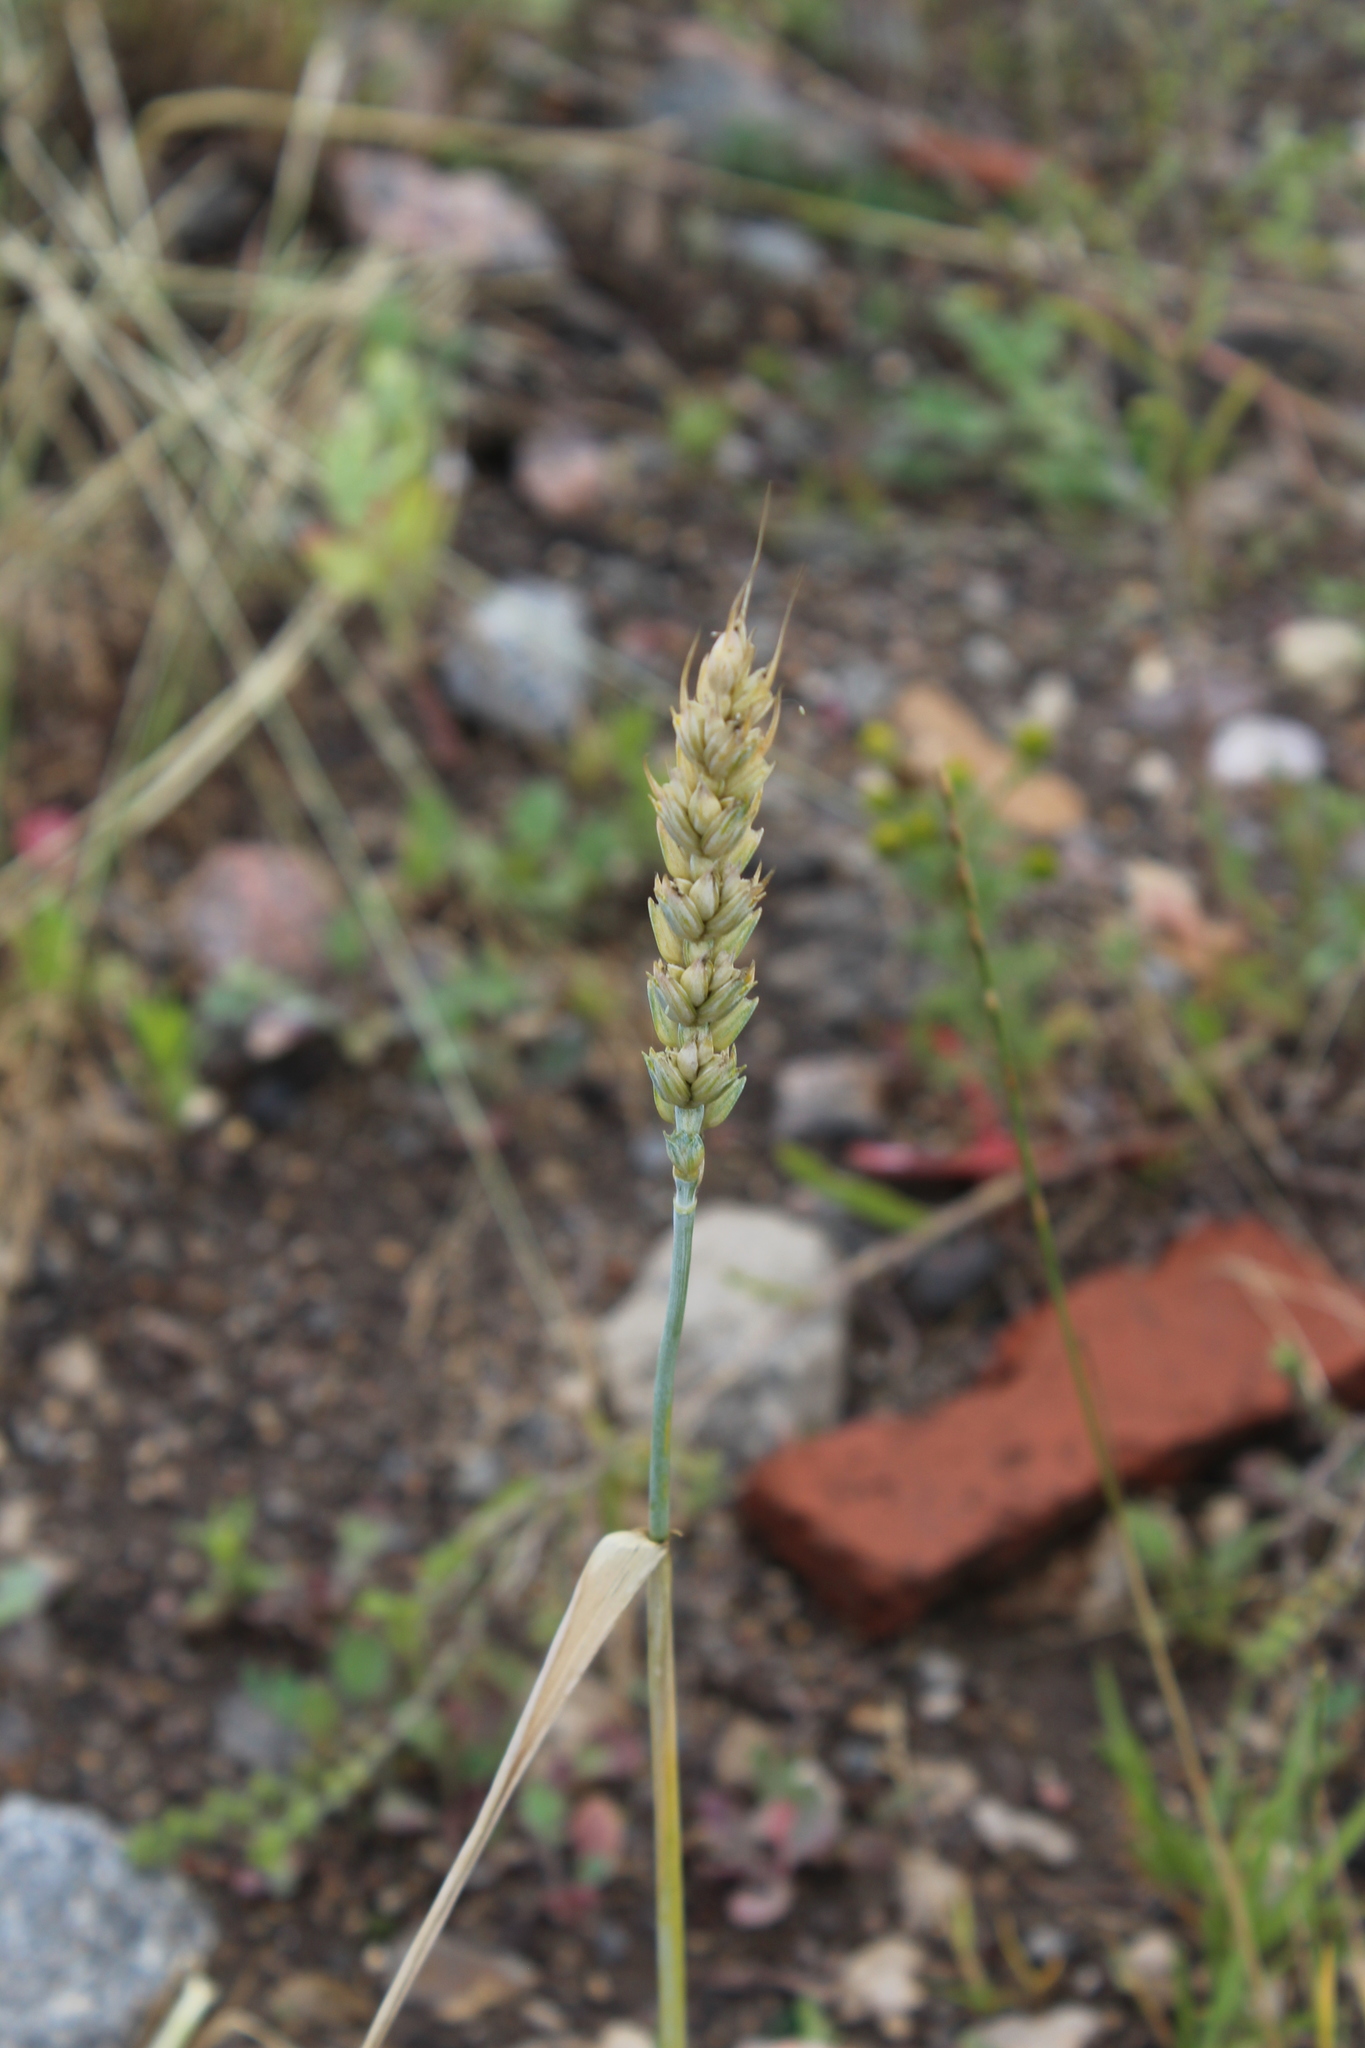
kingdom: Plantae
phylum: Tracheophyta
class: Liliopsida
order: Poales
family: Poaceae
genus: Triticum
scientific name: Triticum aestivum
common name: Common wheat
